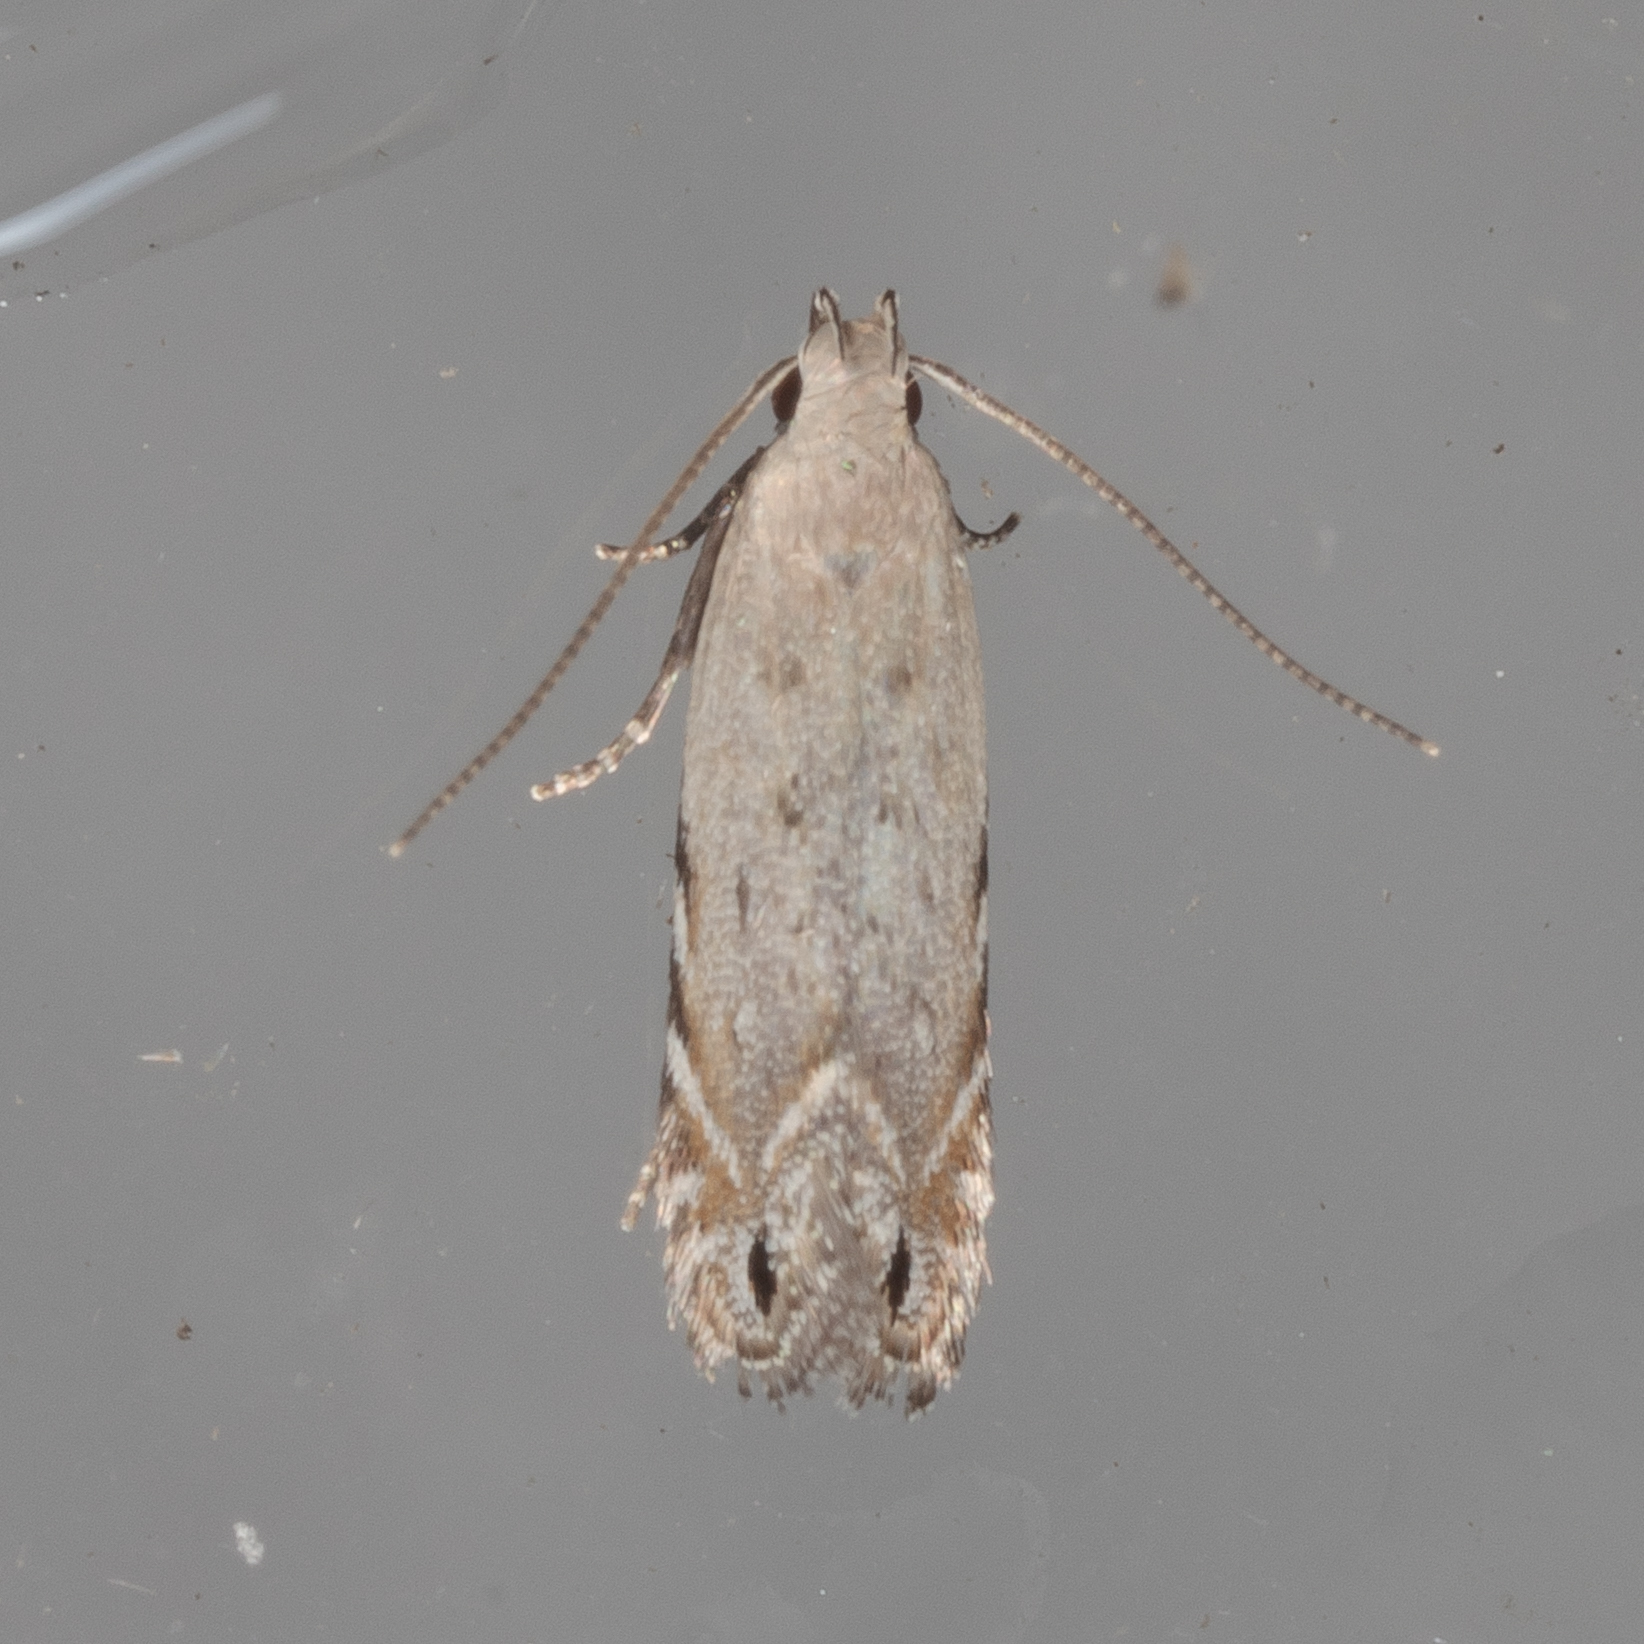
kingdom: Animalia
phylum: Arthropoda
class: Insecta
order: Lepidoptera
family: Gelechiidae
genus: Battaristis
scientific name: Battaristis concinnusella
